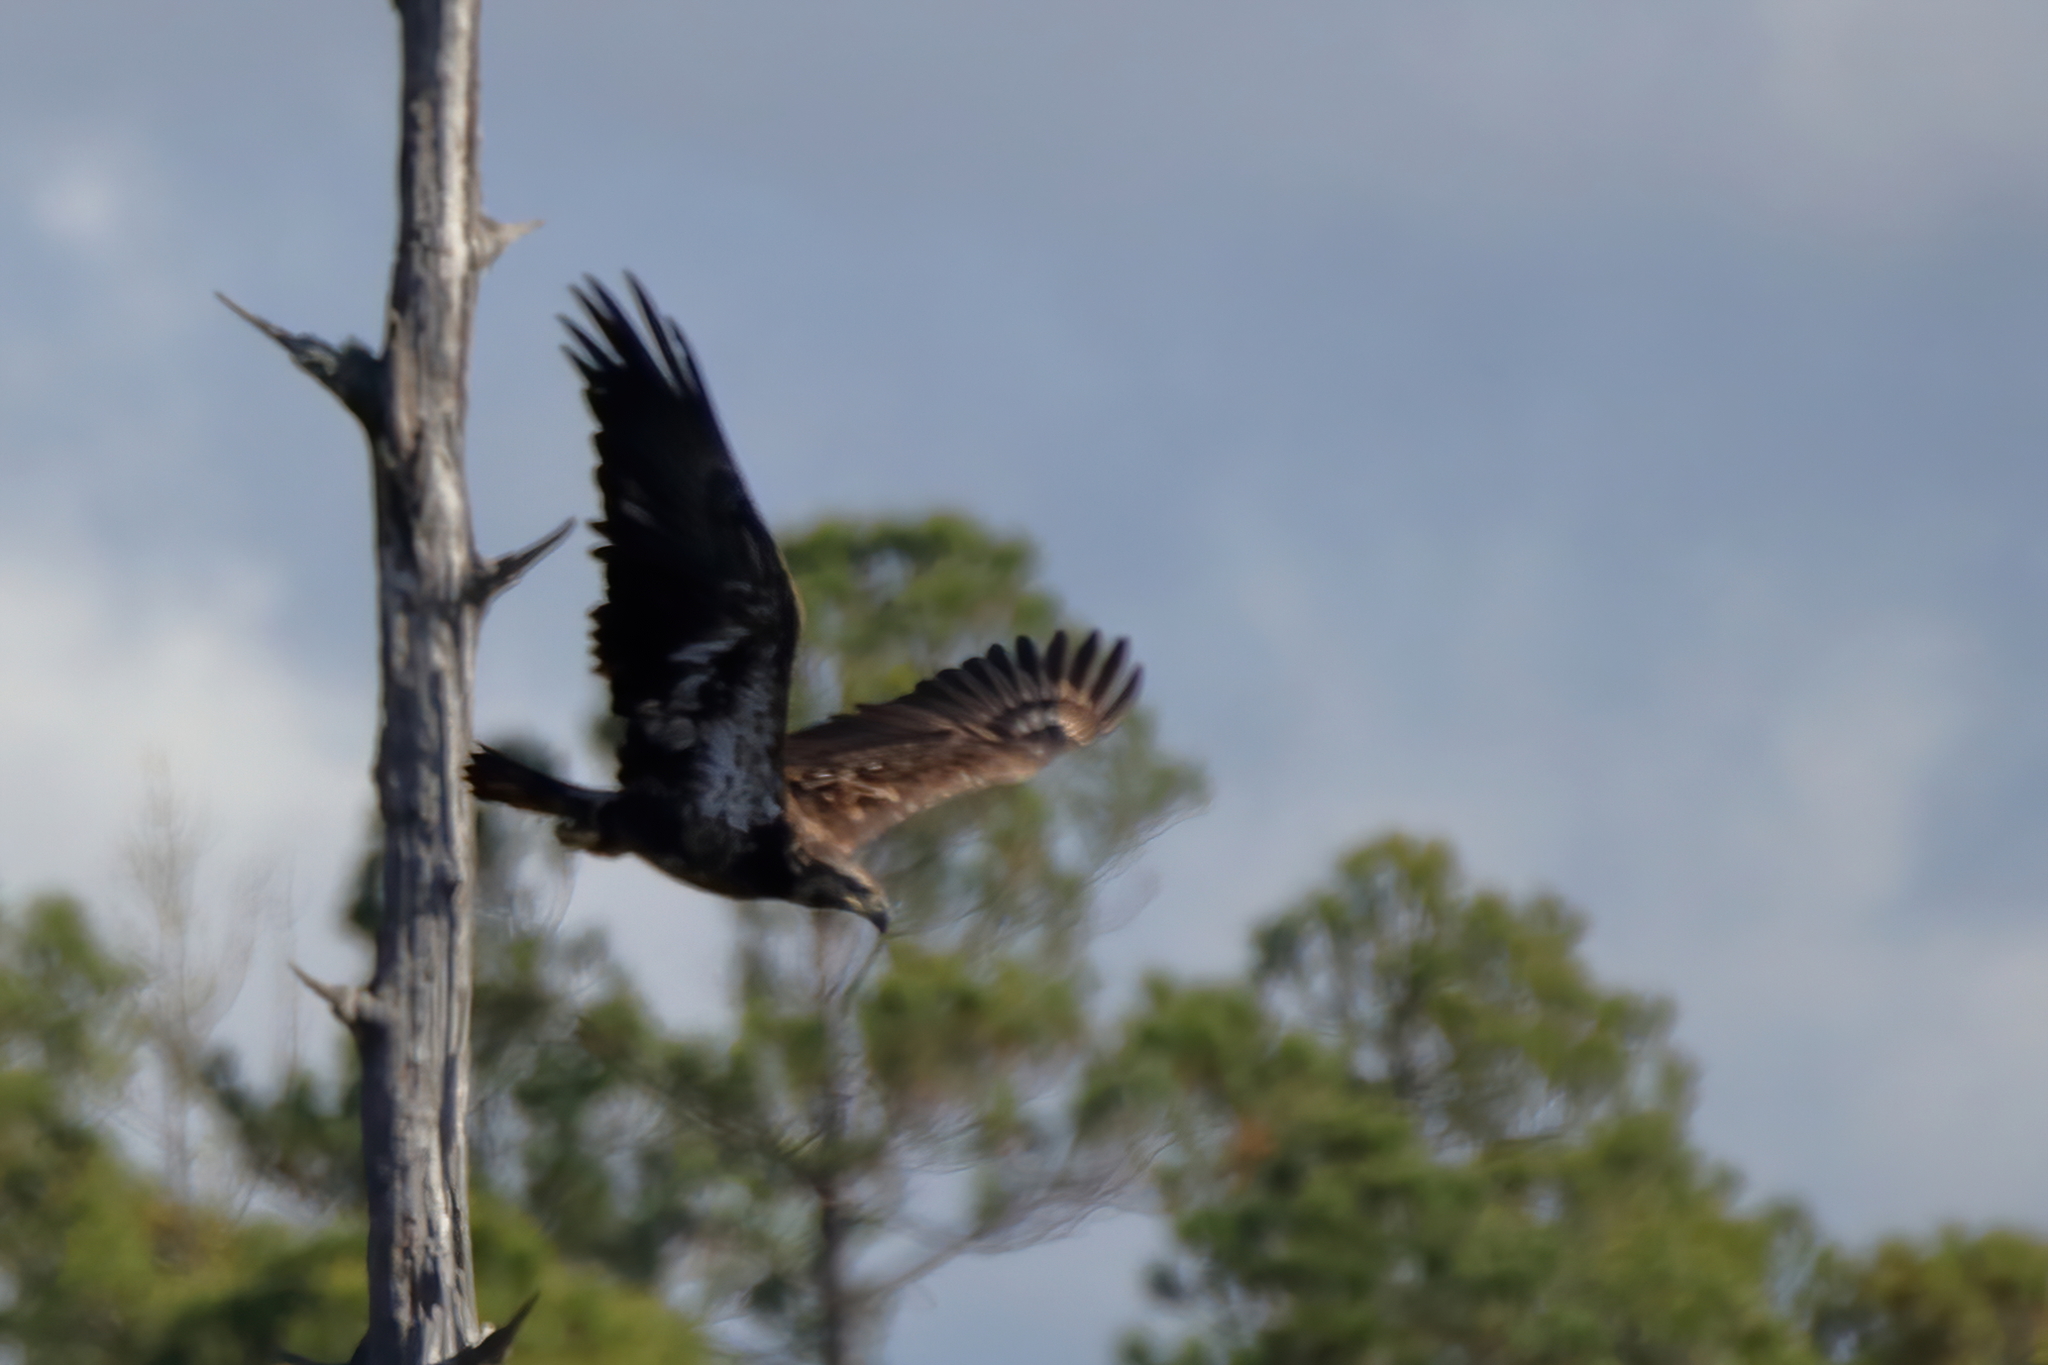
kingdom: Animalia
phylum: Chordata
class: Aves
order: Accipitriformes
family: Accipitridae
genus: Haliaeetus
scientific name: Haliaeetus leucocephalus
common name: Bald eagle
